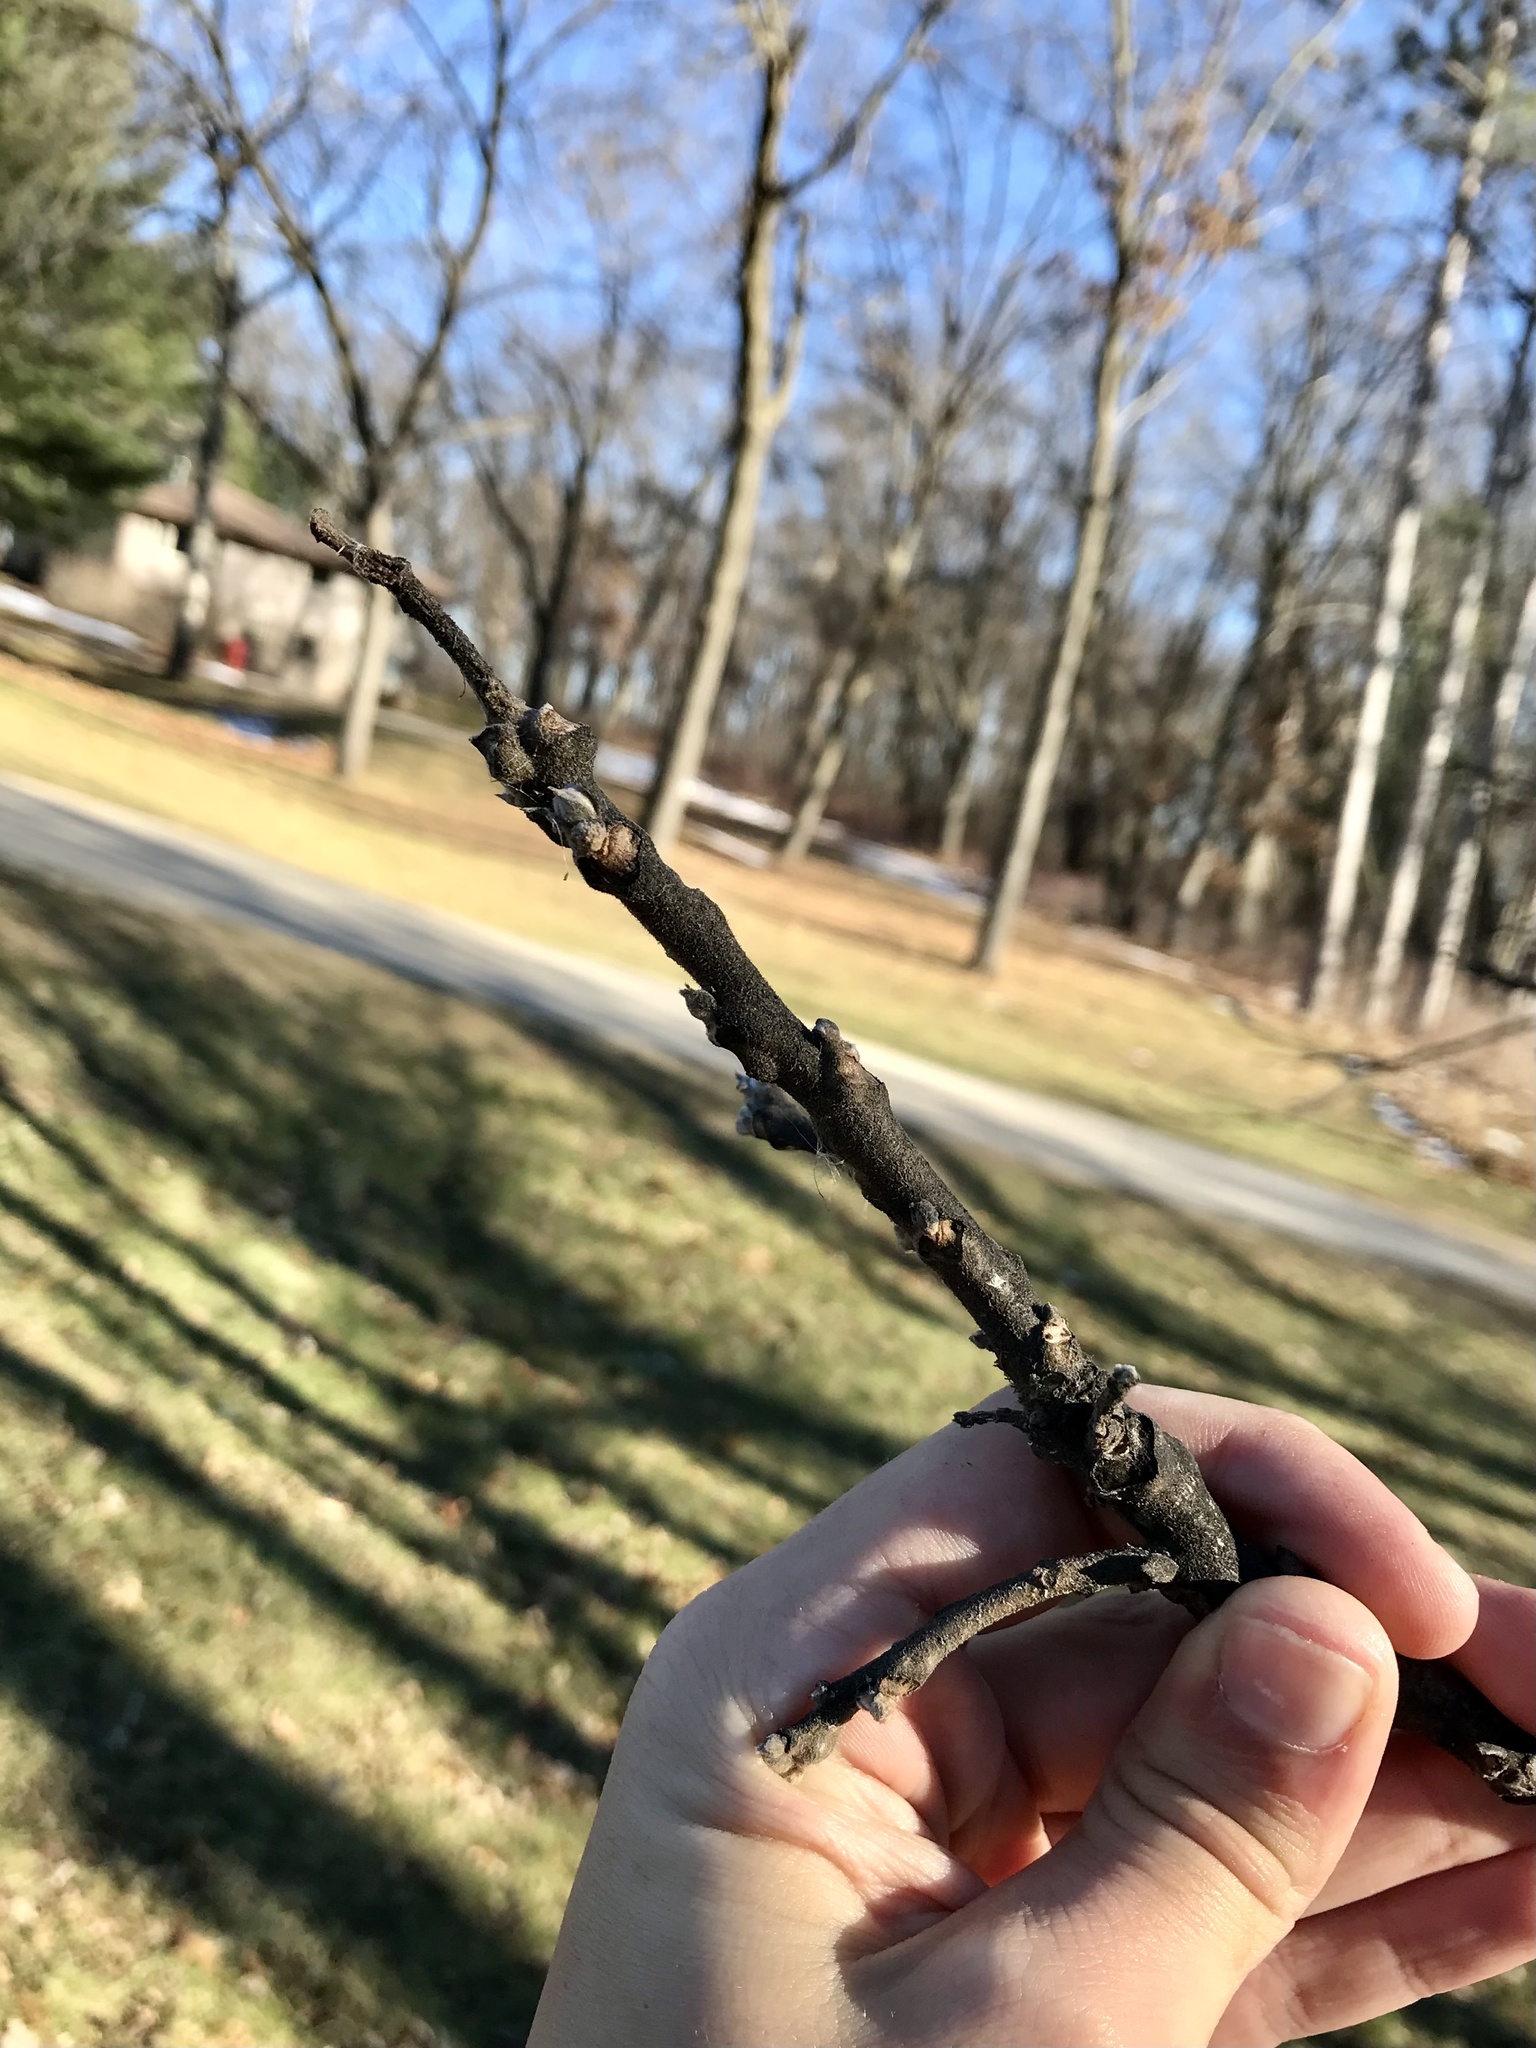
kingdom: Plantae
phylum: Tracheophyta
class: Magnoliopsida
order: Fagales
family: Juglandaceae
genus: Juglans
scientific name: Juglans nigra
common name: Black walnut
